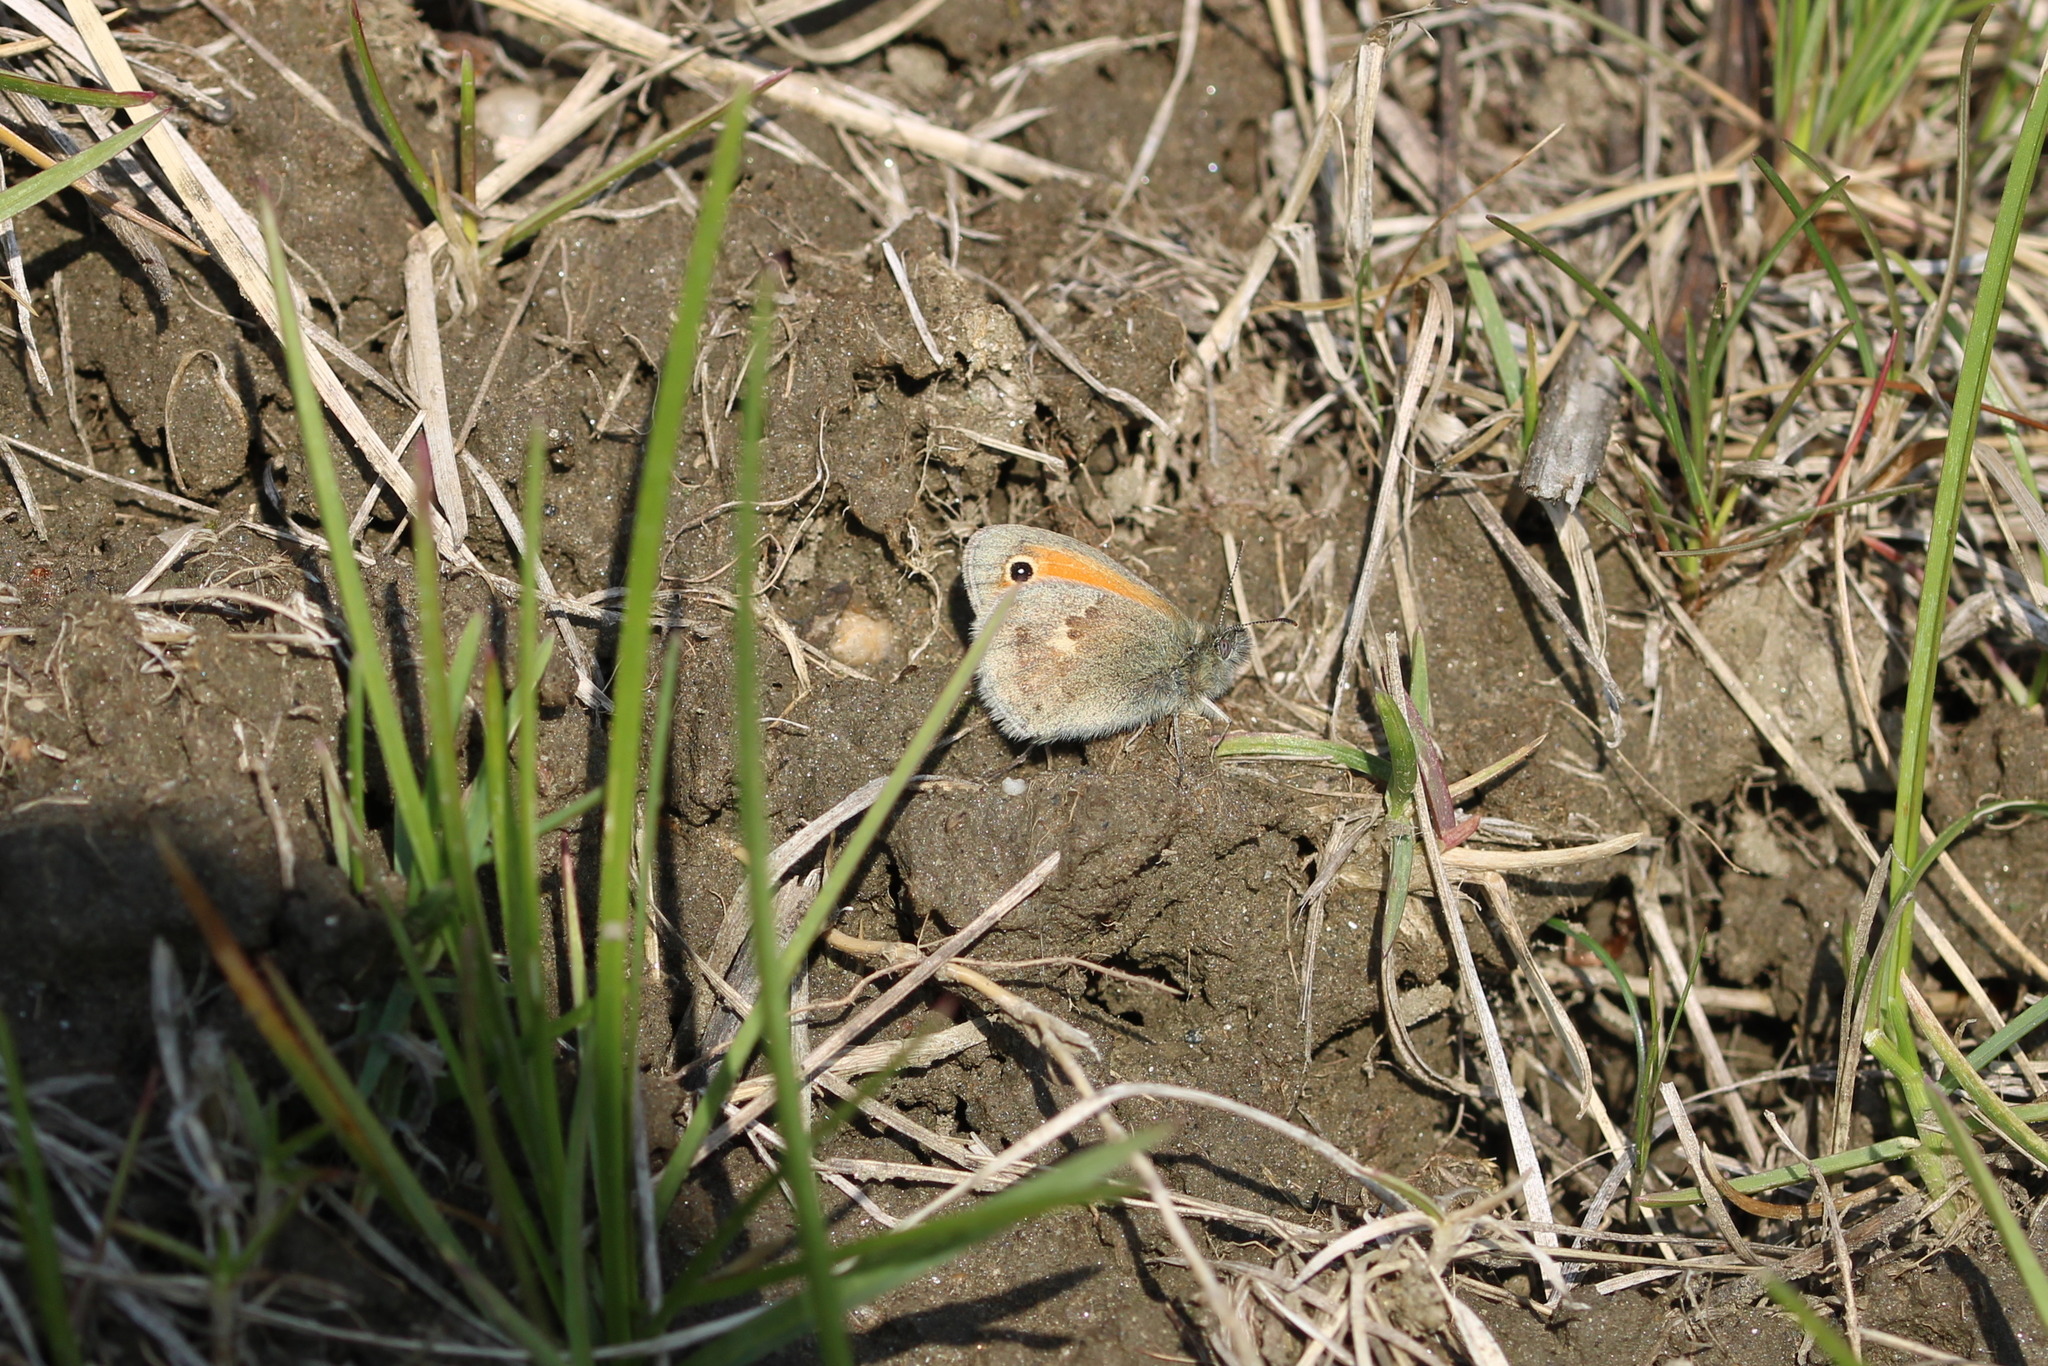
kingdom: Animalia
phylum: Arthropoda
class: Insecta
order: Lepidoptera
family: Nymphalidae
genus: Coenonympha
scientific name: Coenonympha pamphilus
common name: Small heath
